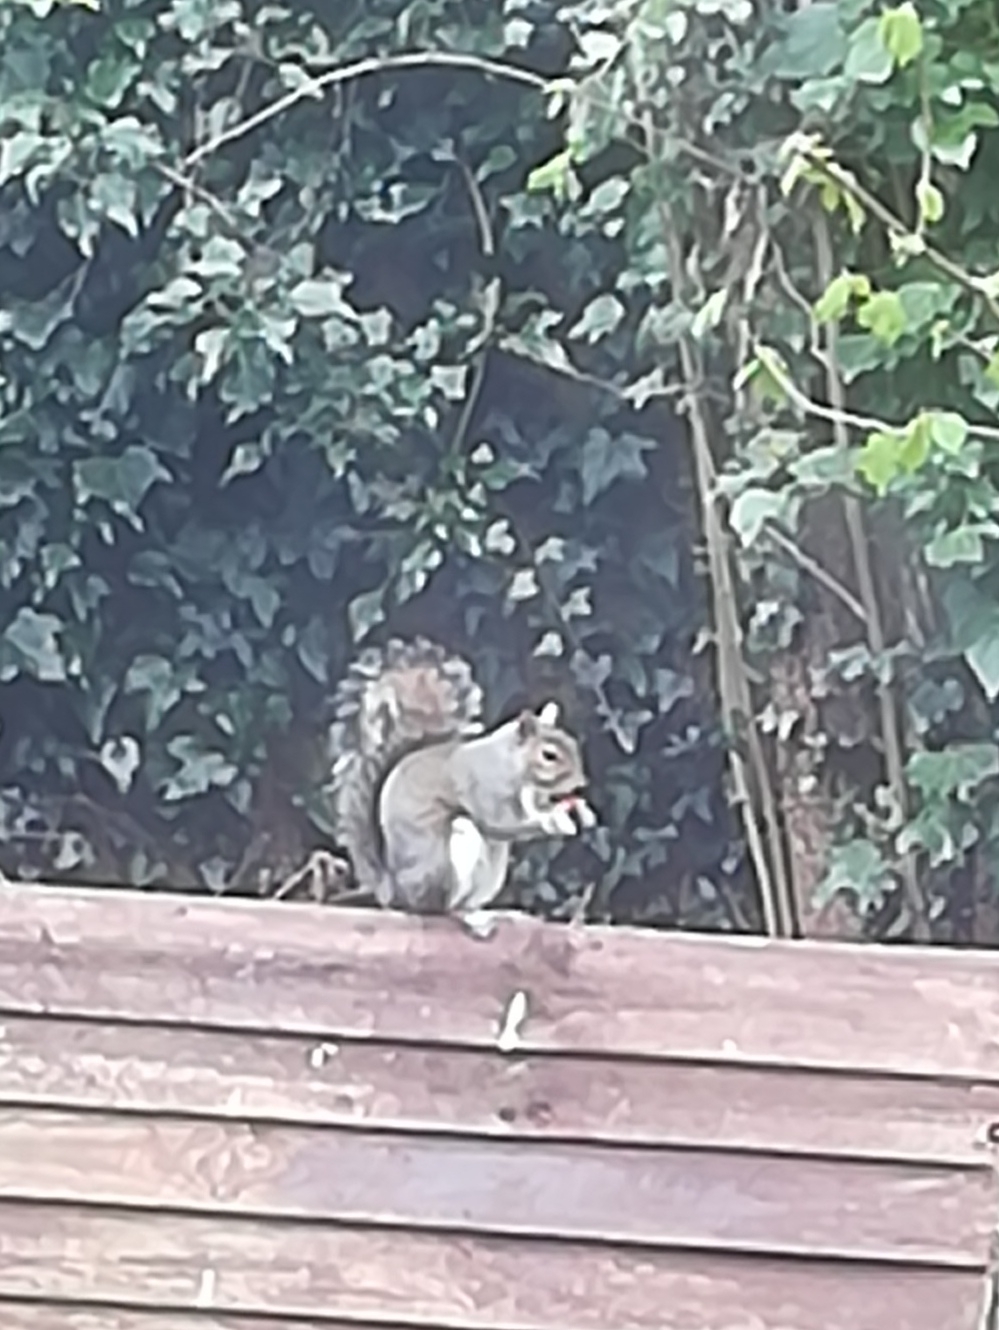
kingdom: Animalia
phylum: Chordata
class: Mammalia
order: Rodentia
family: Sciuridae
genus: Sciurus
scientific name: Sciurus carolinensis
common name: Eastern gray squirrel
